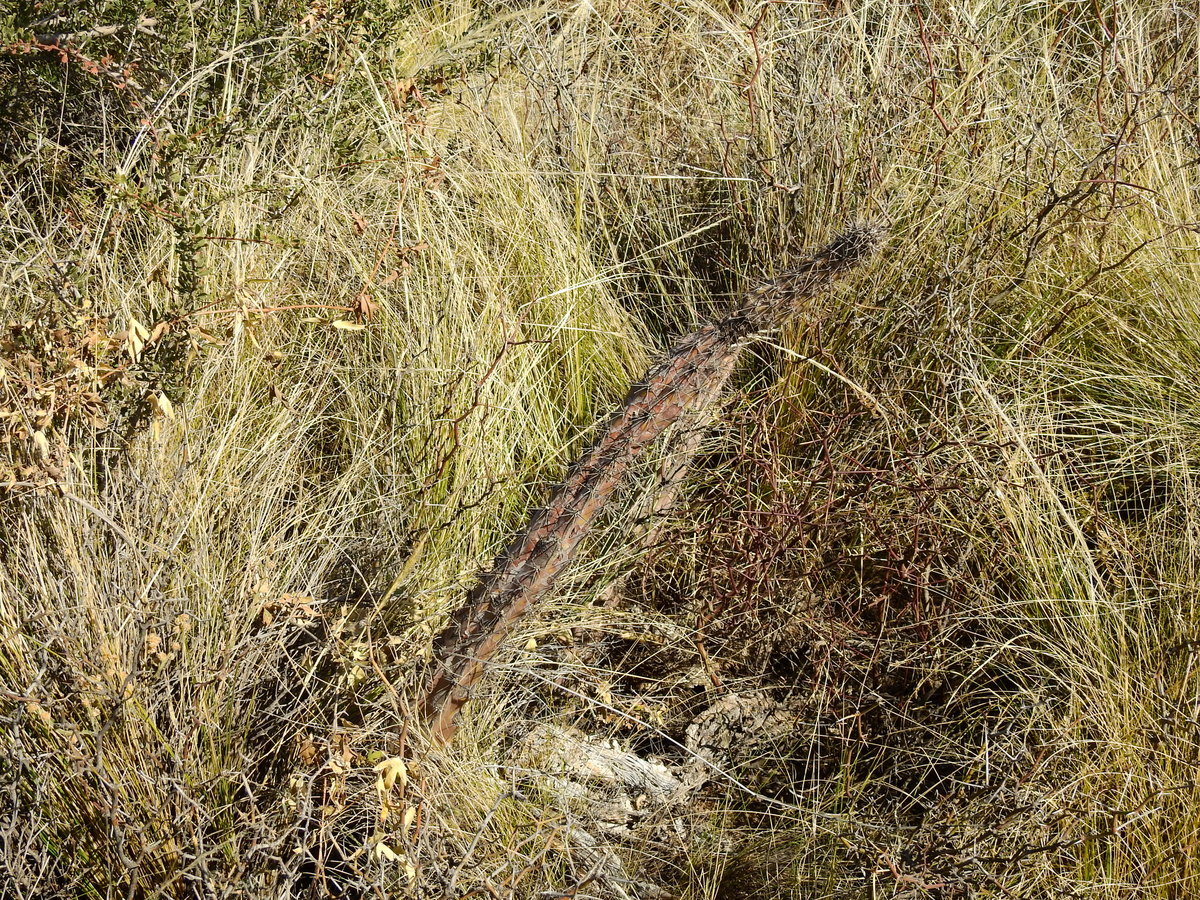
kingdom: Plantae
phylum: Tracheophyta
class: Magnoliopsida
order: Caryophyllales
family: Cactaceae
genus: Cereus
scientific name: Cereus aethiops
